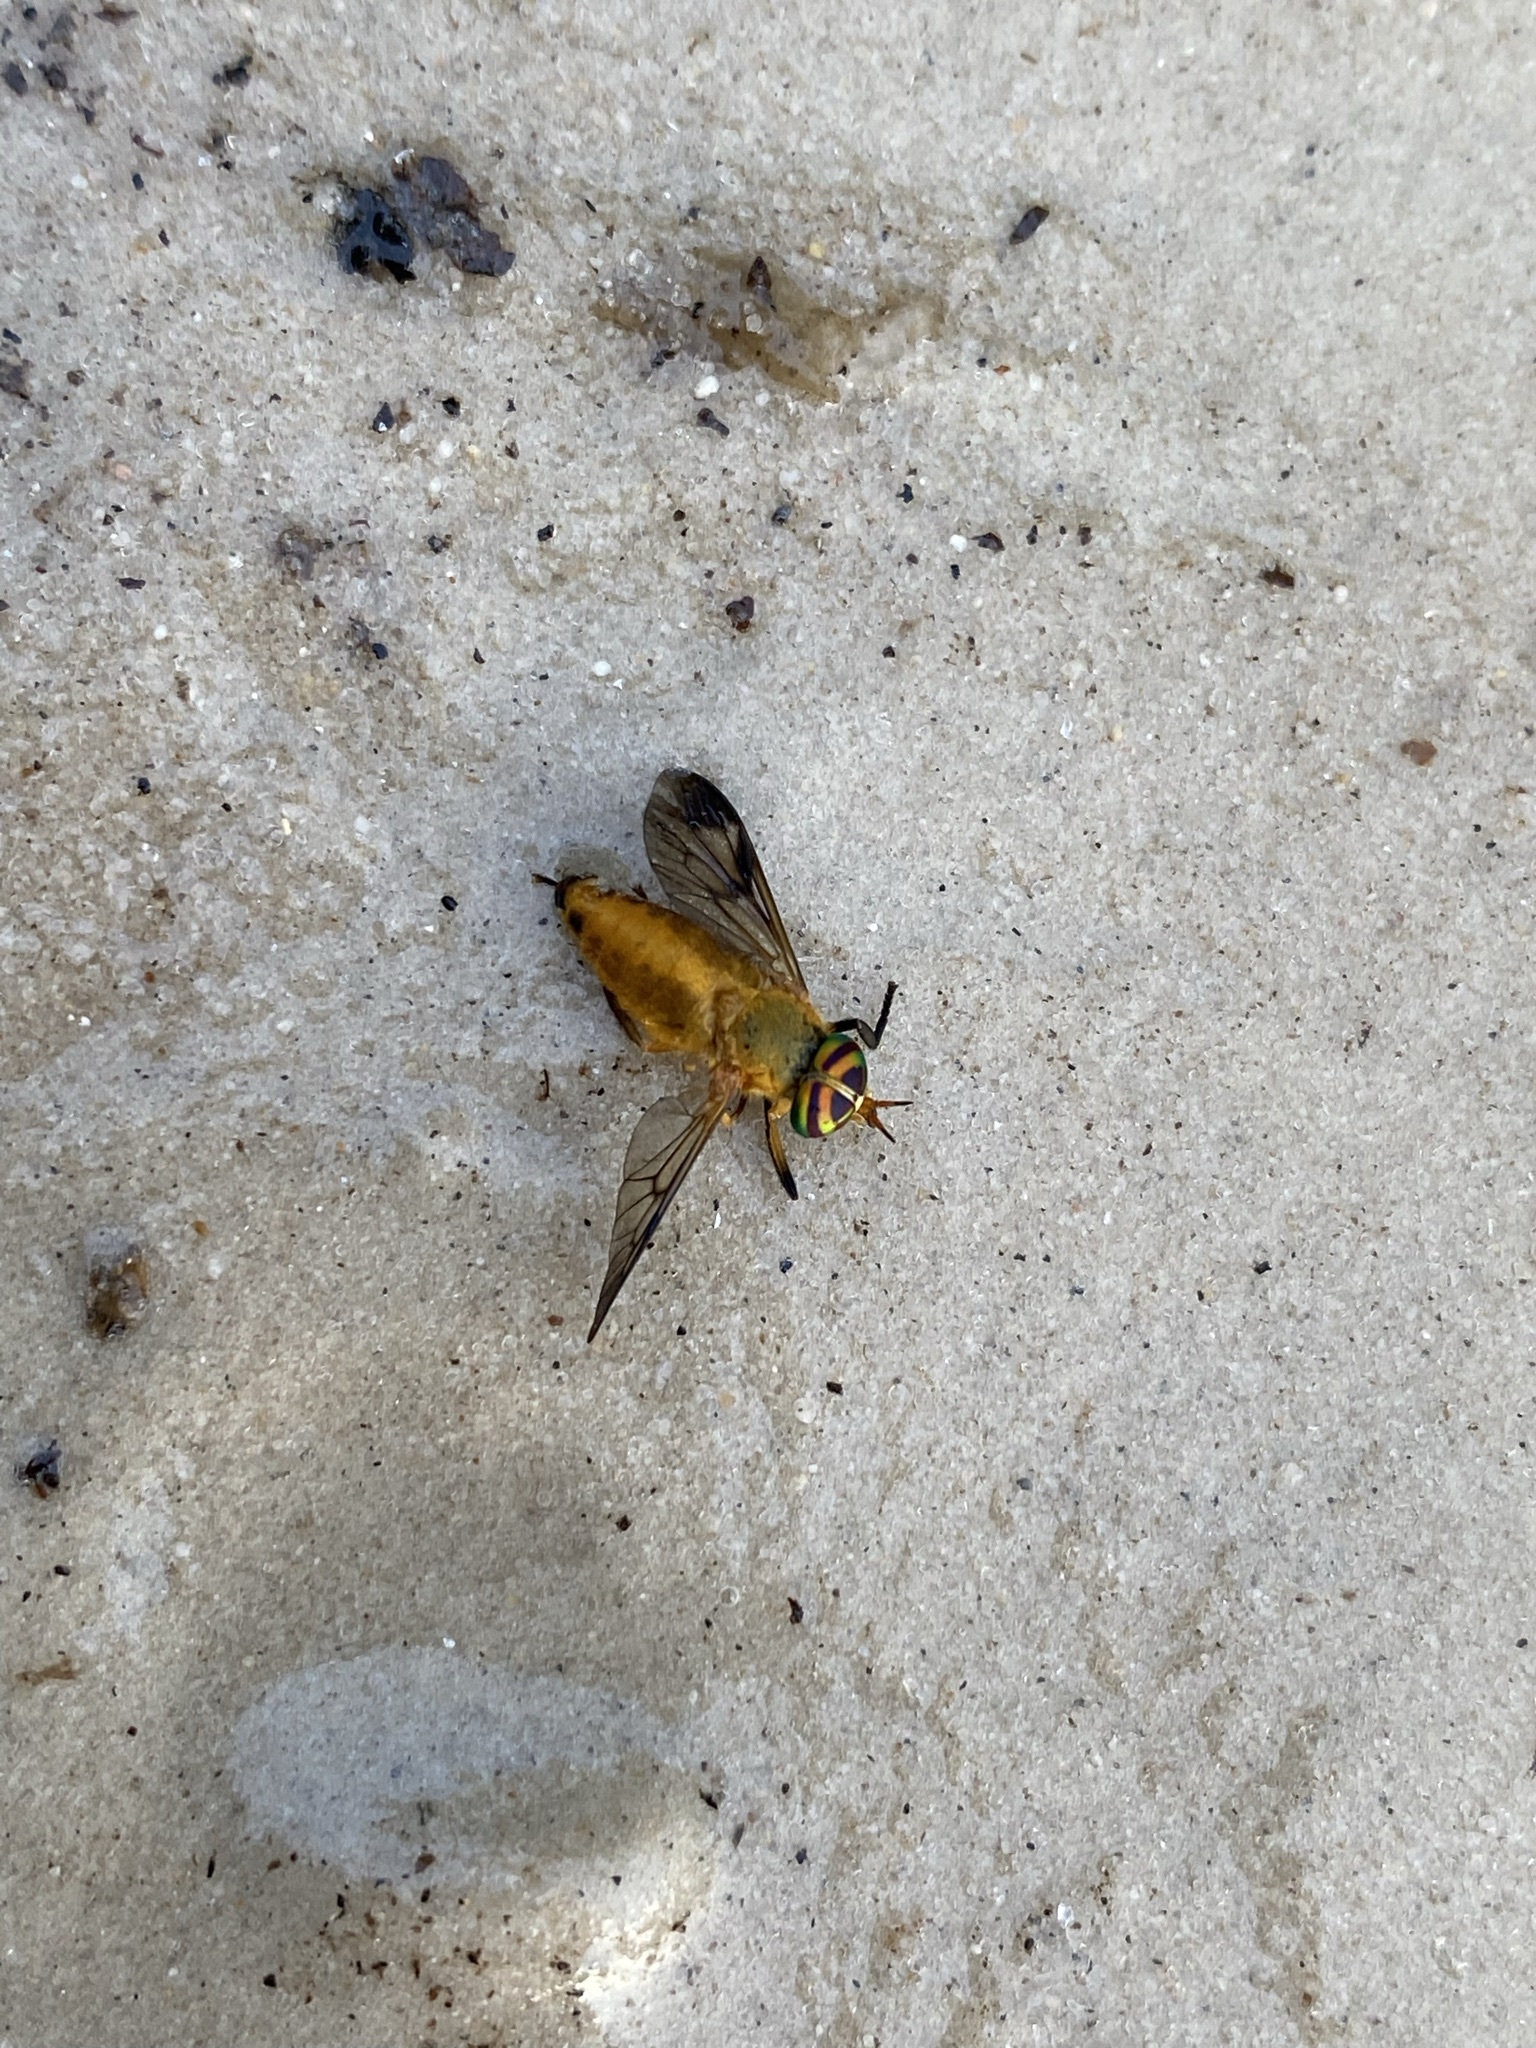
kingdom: Animalia
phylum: Arthropoda
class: Insecta
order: Diptera
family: Tabanidae
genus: Diachlorus
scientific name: Diachlorus ferrugatus
